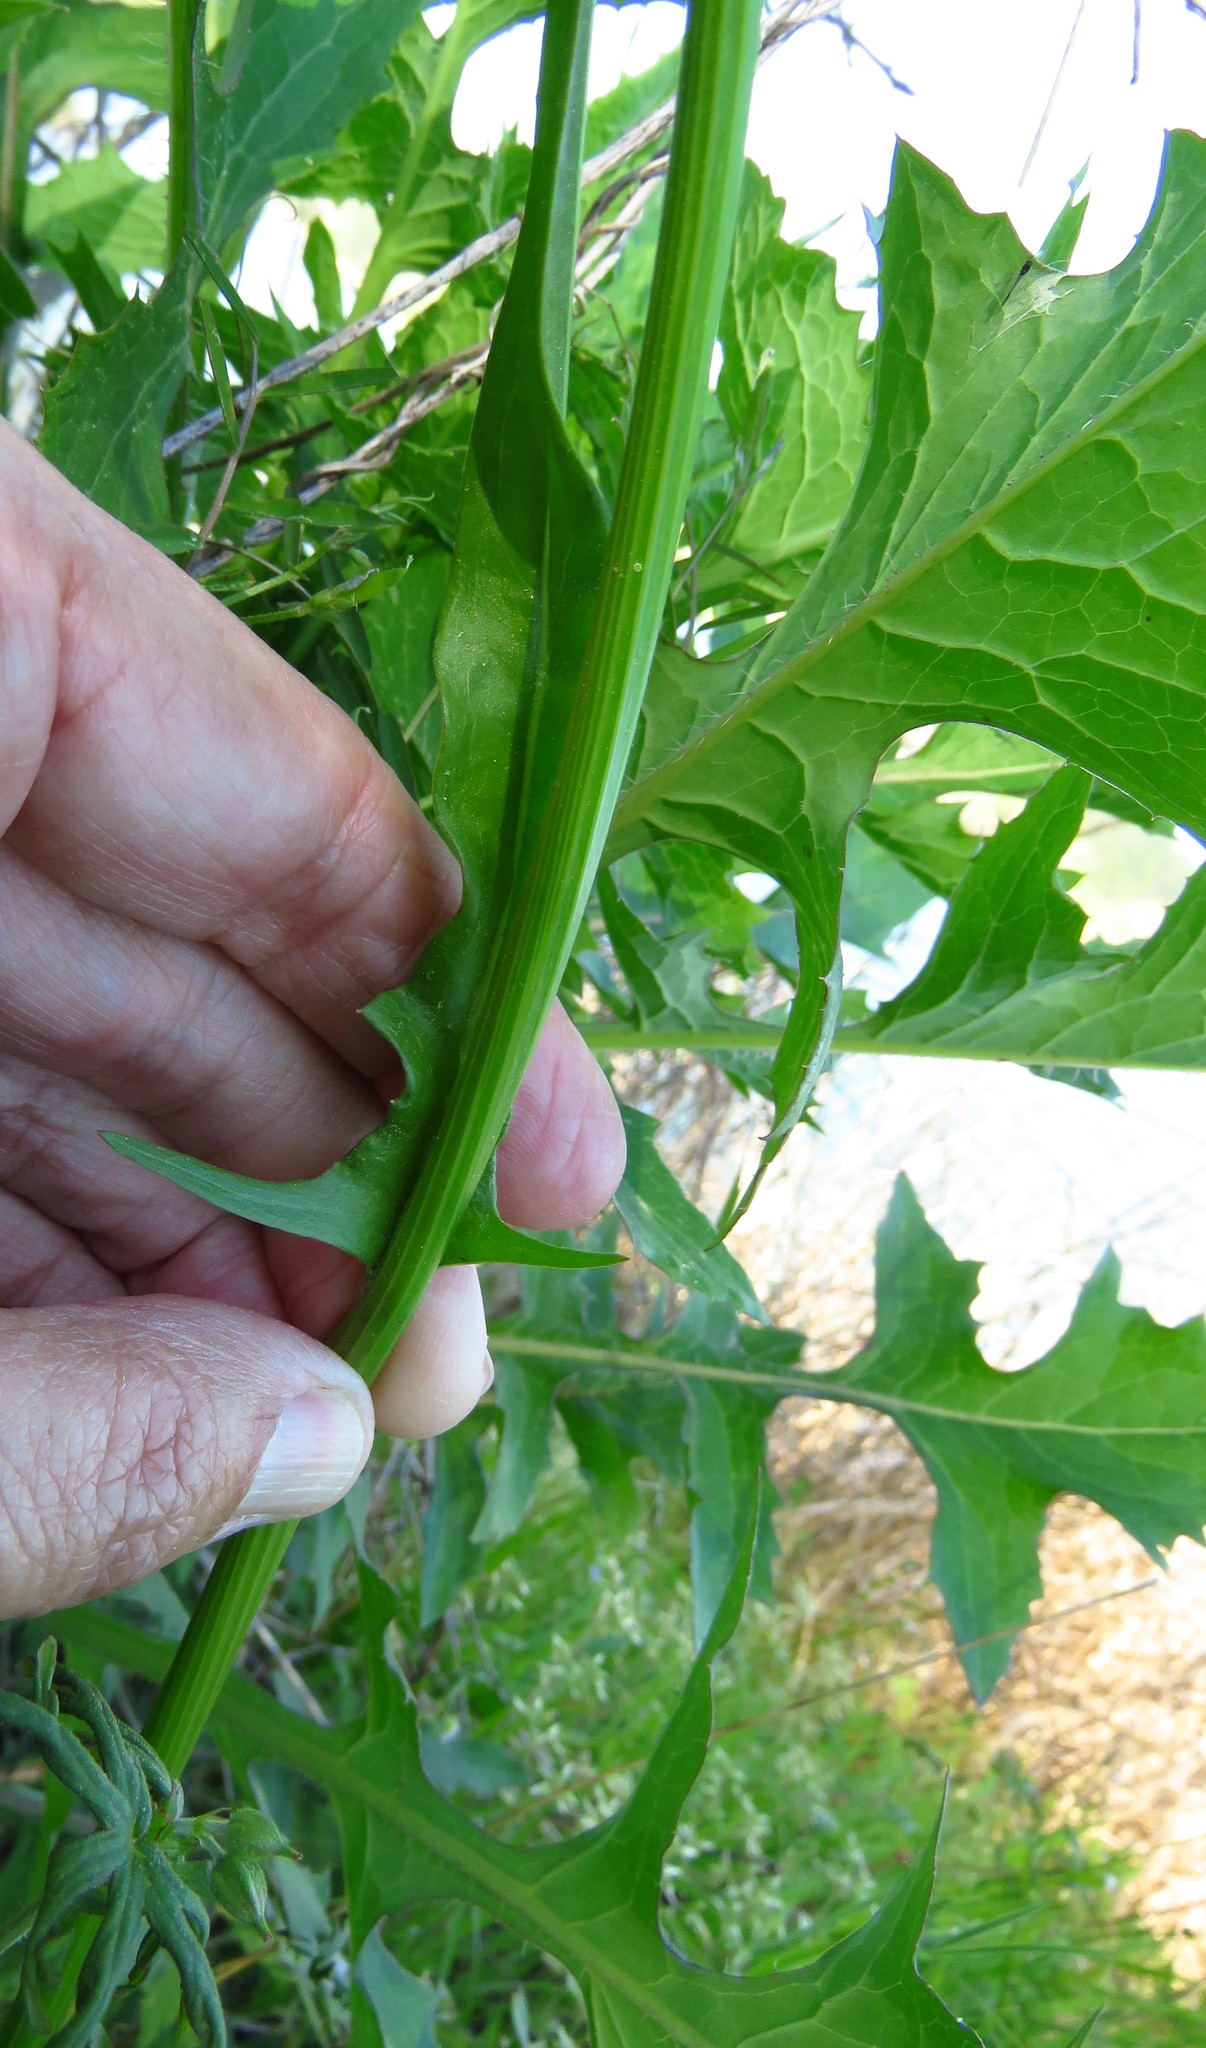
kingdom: Plantae
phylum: Tracheophyta
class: Magnoliopsida
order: Asterales
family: Asteraceae
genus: Pyrrhopappus
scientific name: Pyrrhopappus pauciflorus
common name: Texas false dandelion
